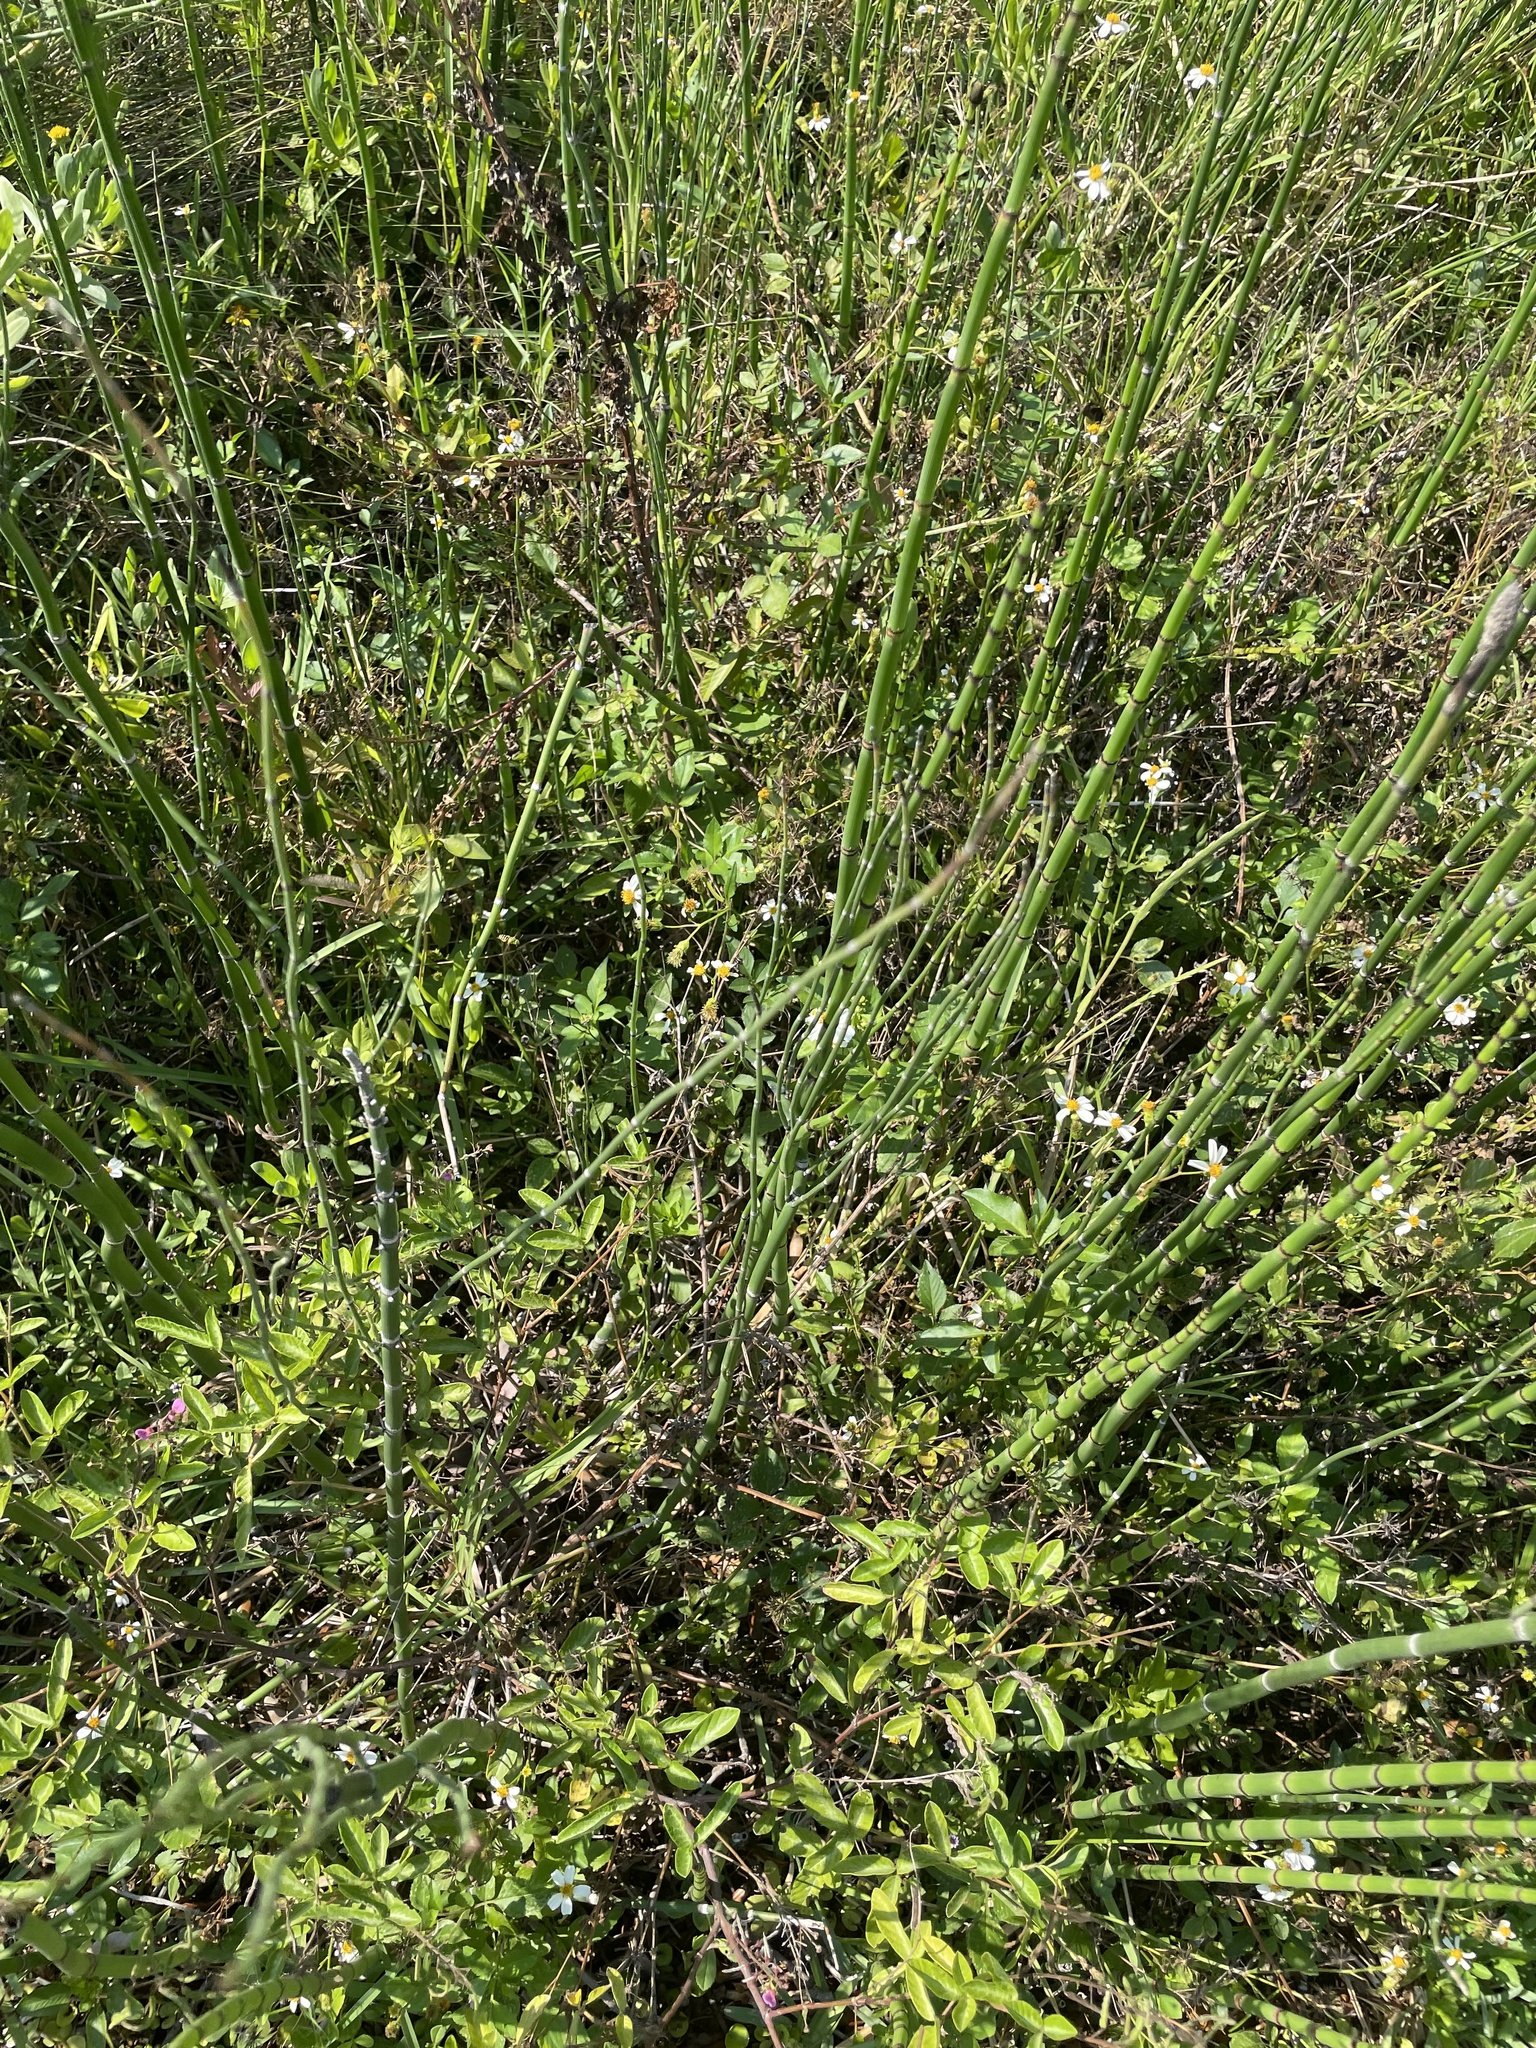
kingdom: Plantae
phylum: Tracheophyta
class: Magnoliopsida
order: Asterales
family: Asteraceae
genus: Bidens
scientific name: Bidens alba
